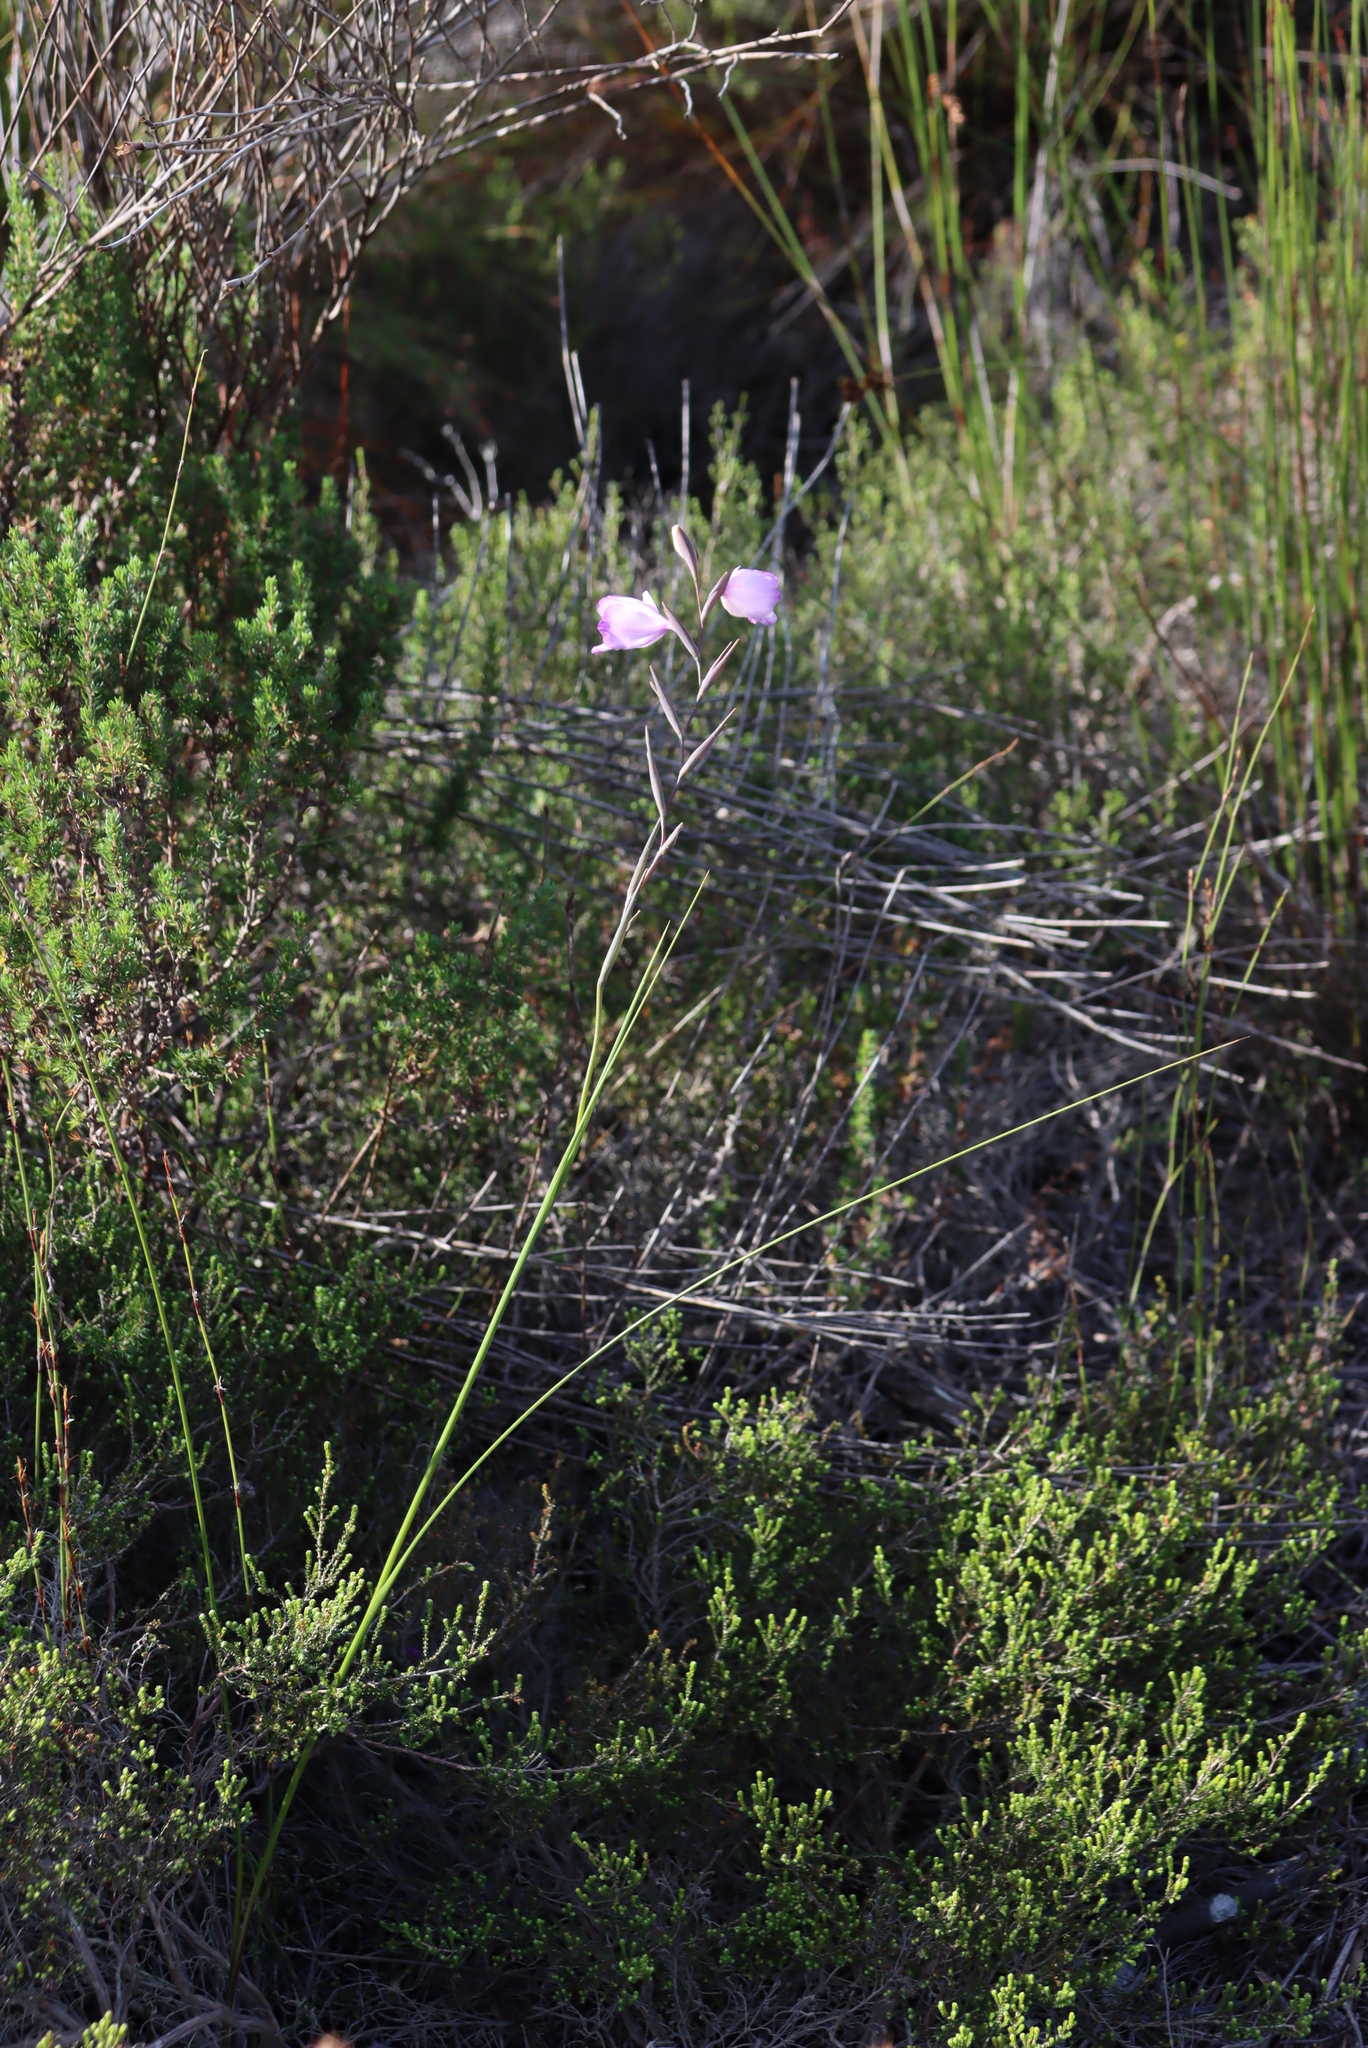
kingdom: Plantae
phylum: Tracheophyta
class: Liliopsida
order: Asparagales
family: Iridaceae
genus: Gladiolus
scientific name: Gladiolus rogersii
